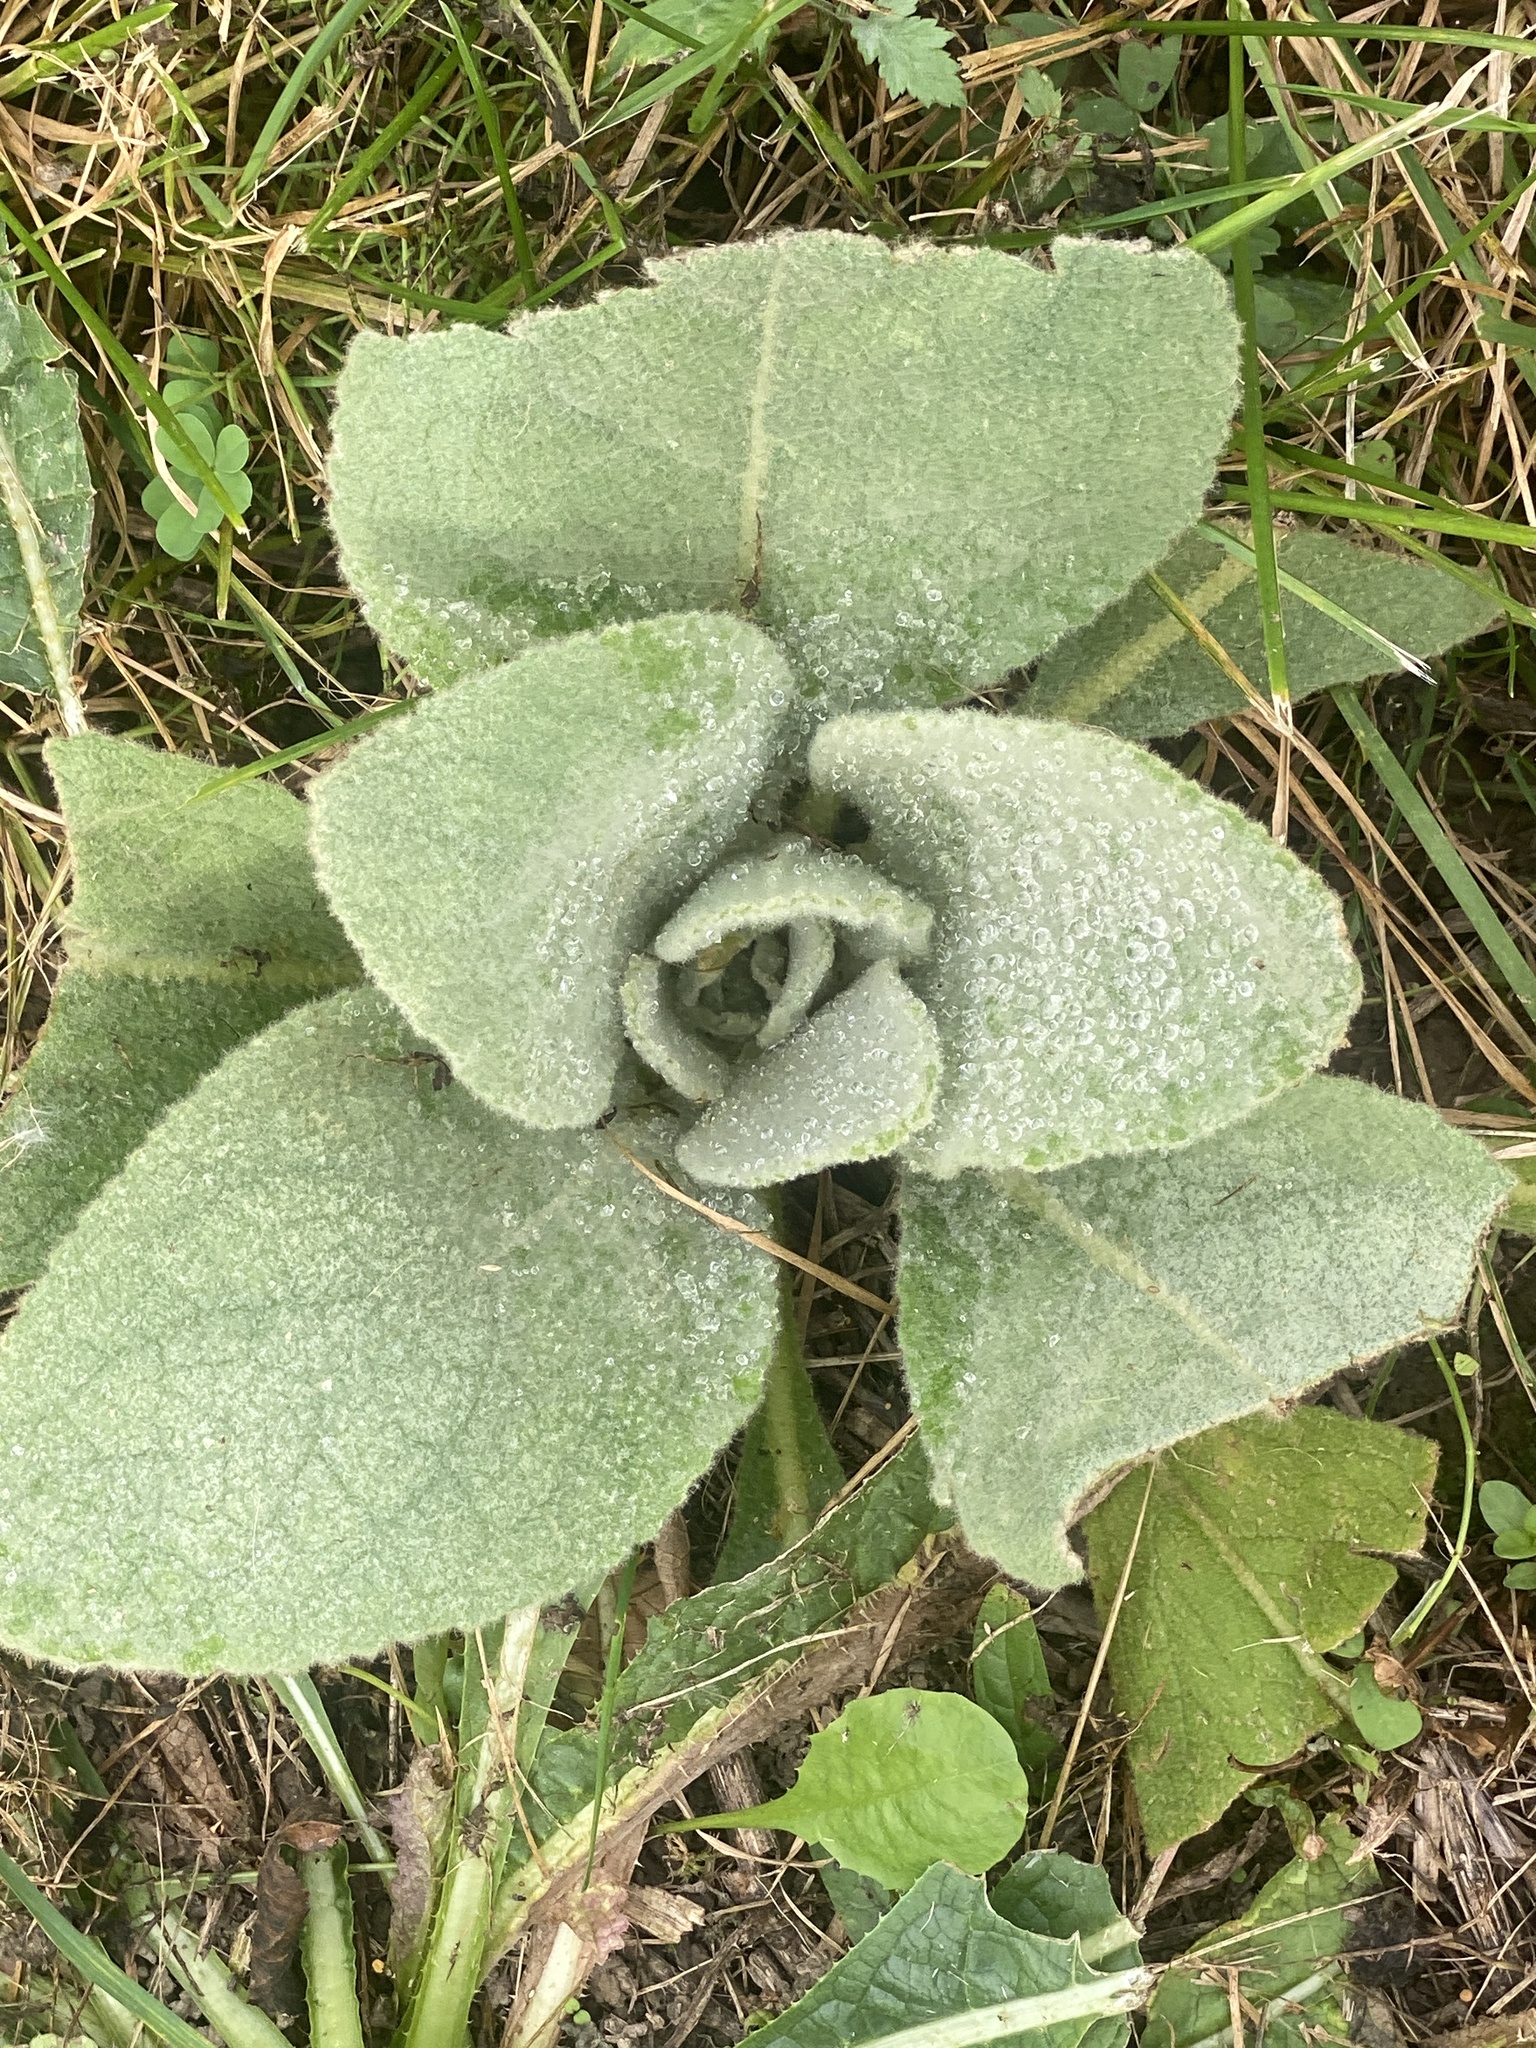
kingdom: Plantae
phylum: Tracheophyta
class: Magnoliopsida
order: Lamiales
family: Scrophulariaceae
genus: Verbascum
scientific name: Verbascum thapsus
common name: Common mullein
